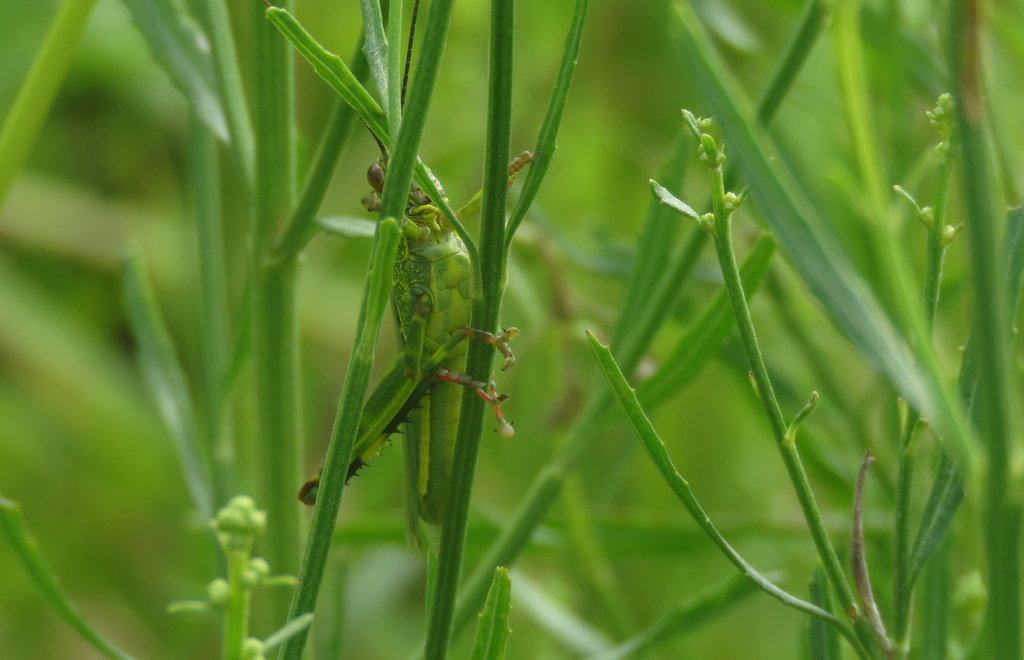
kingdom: Animalia
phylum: Arthropoda
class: Insecta
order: Orthoptera
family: Romaleidae
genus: Zoniopoda
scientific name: Zoniopoda tarsata
